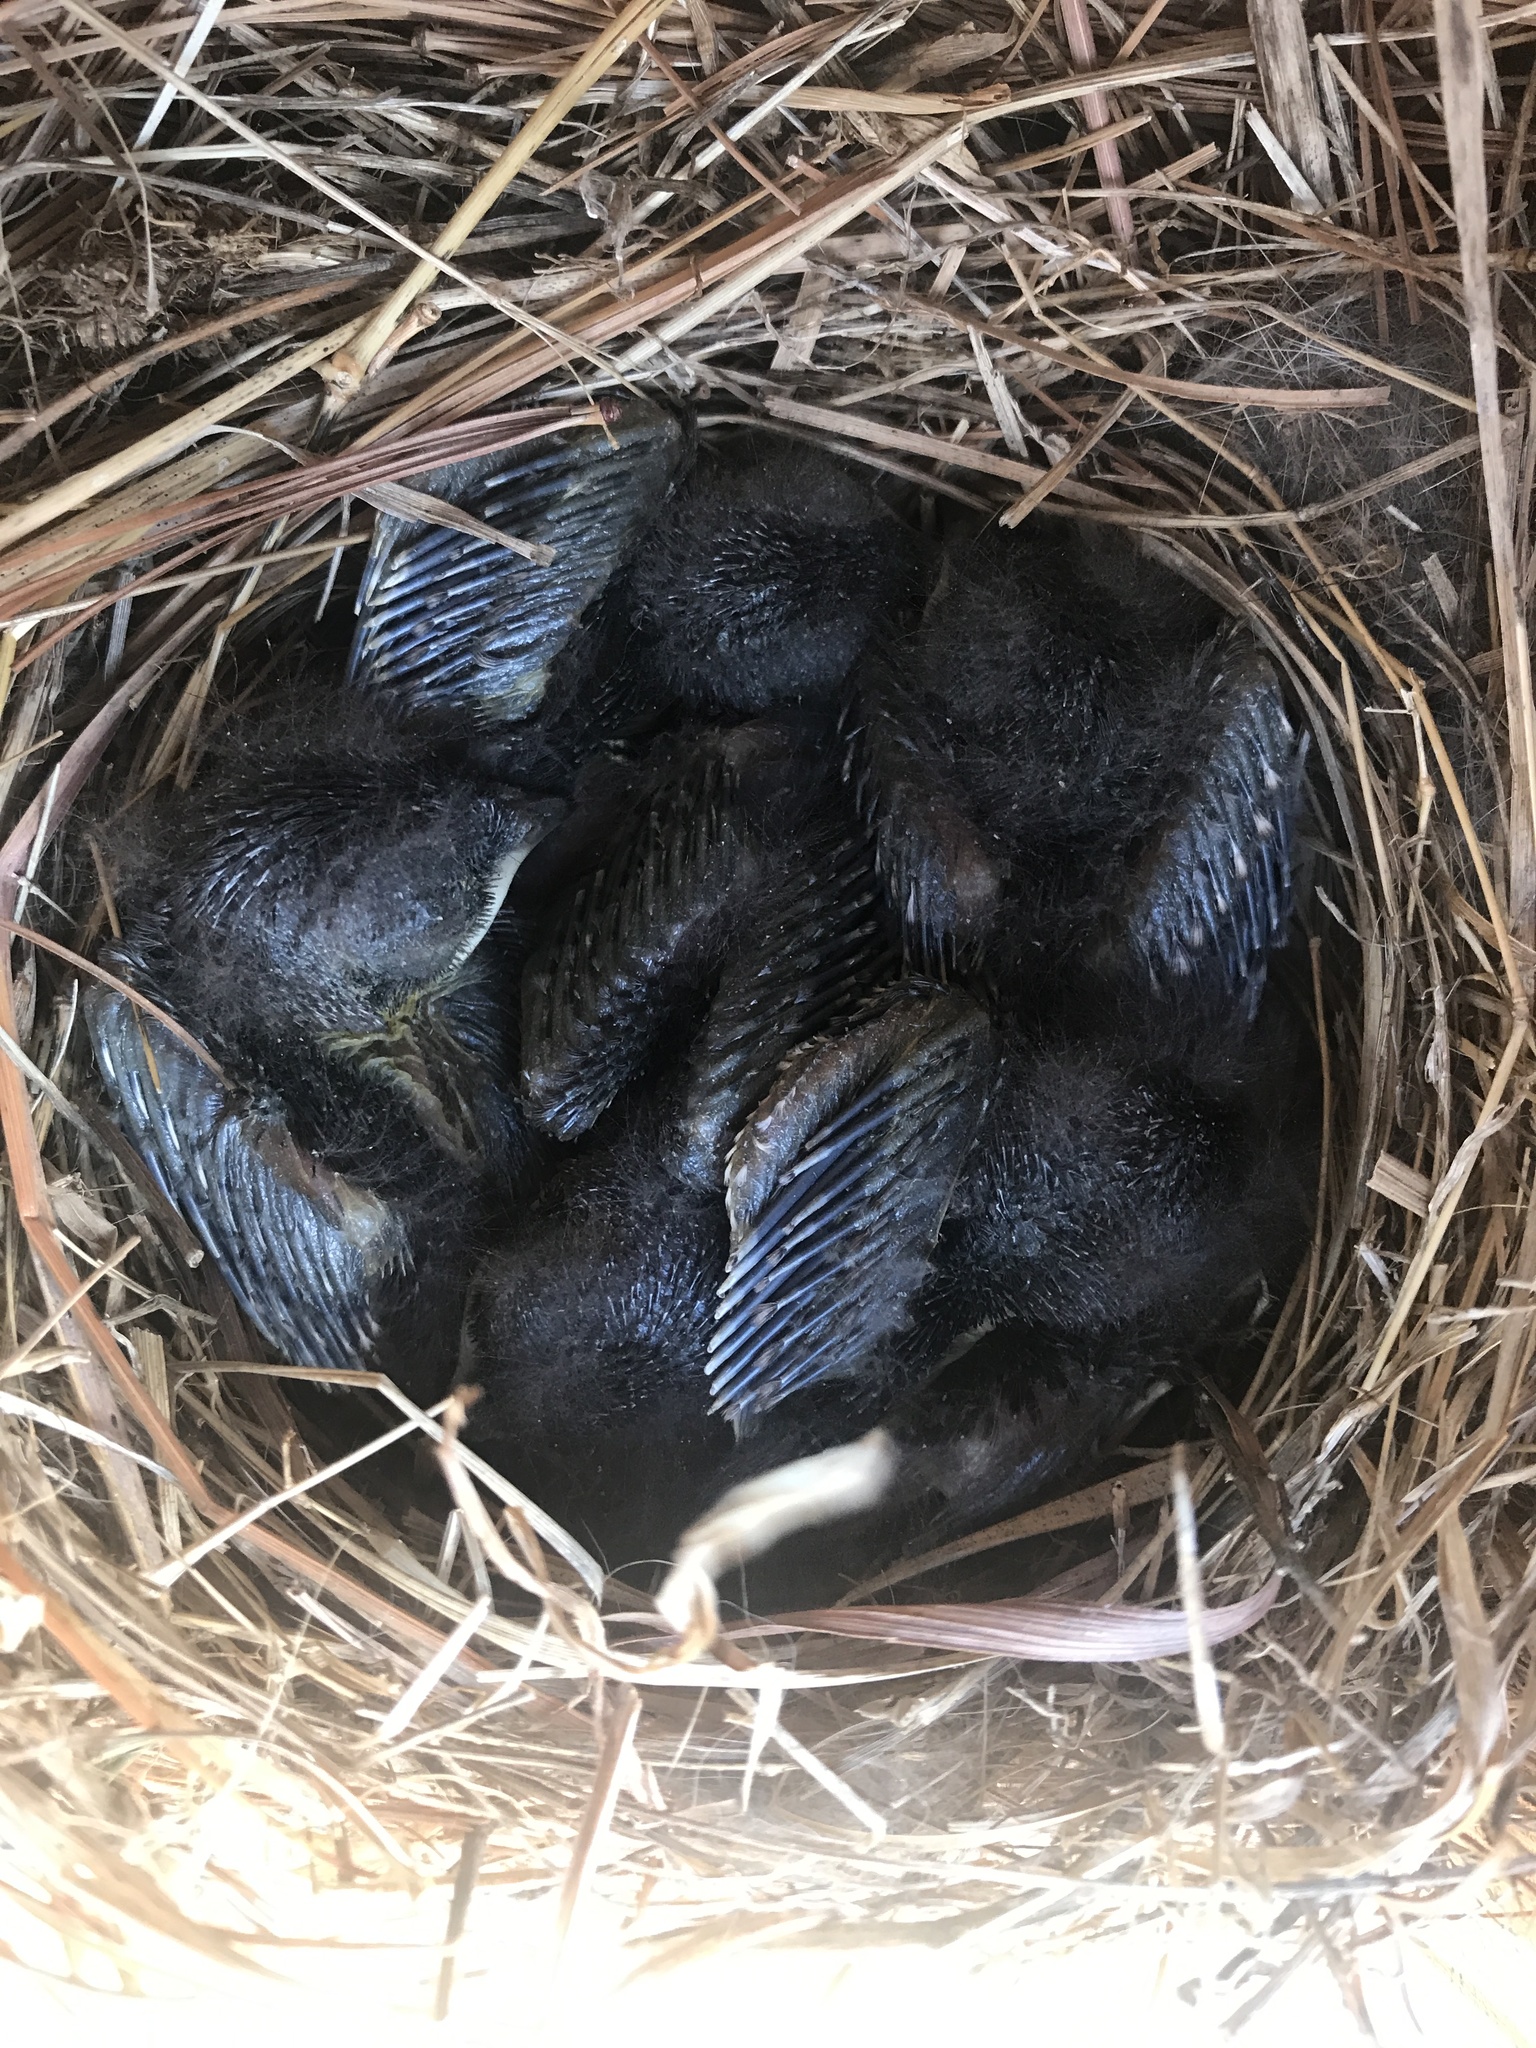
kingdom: Animalia
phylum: Chordata
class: Aves
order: Passeriformes
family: Turdidae
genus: Sialia
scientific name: Sialia sialis
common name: Eastern bluebird
